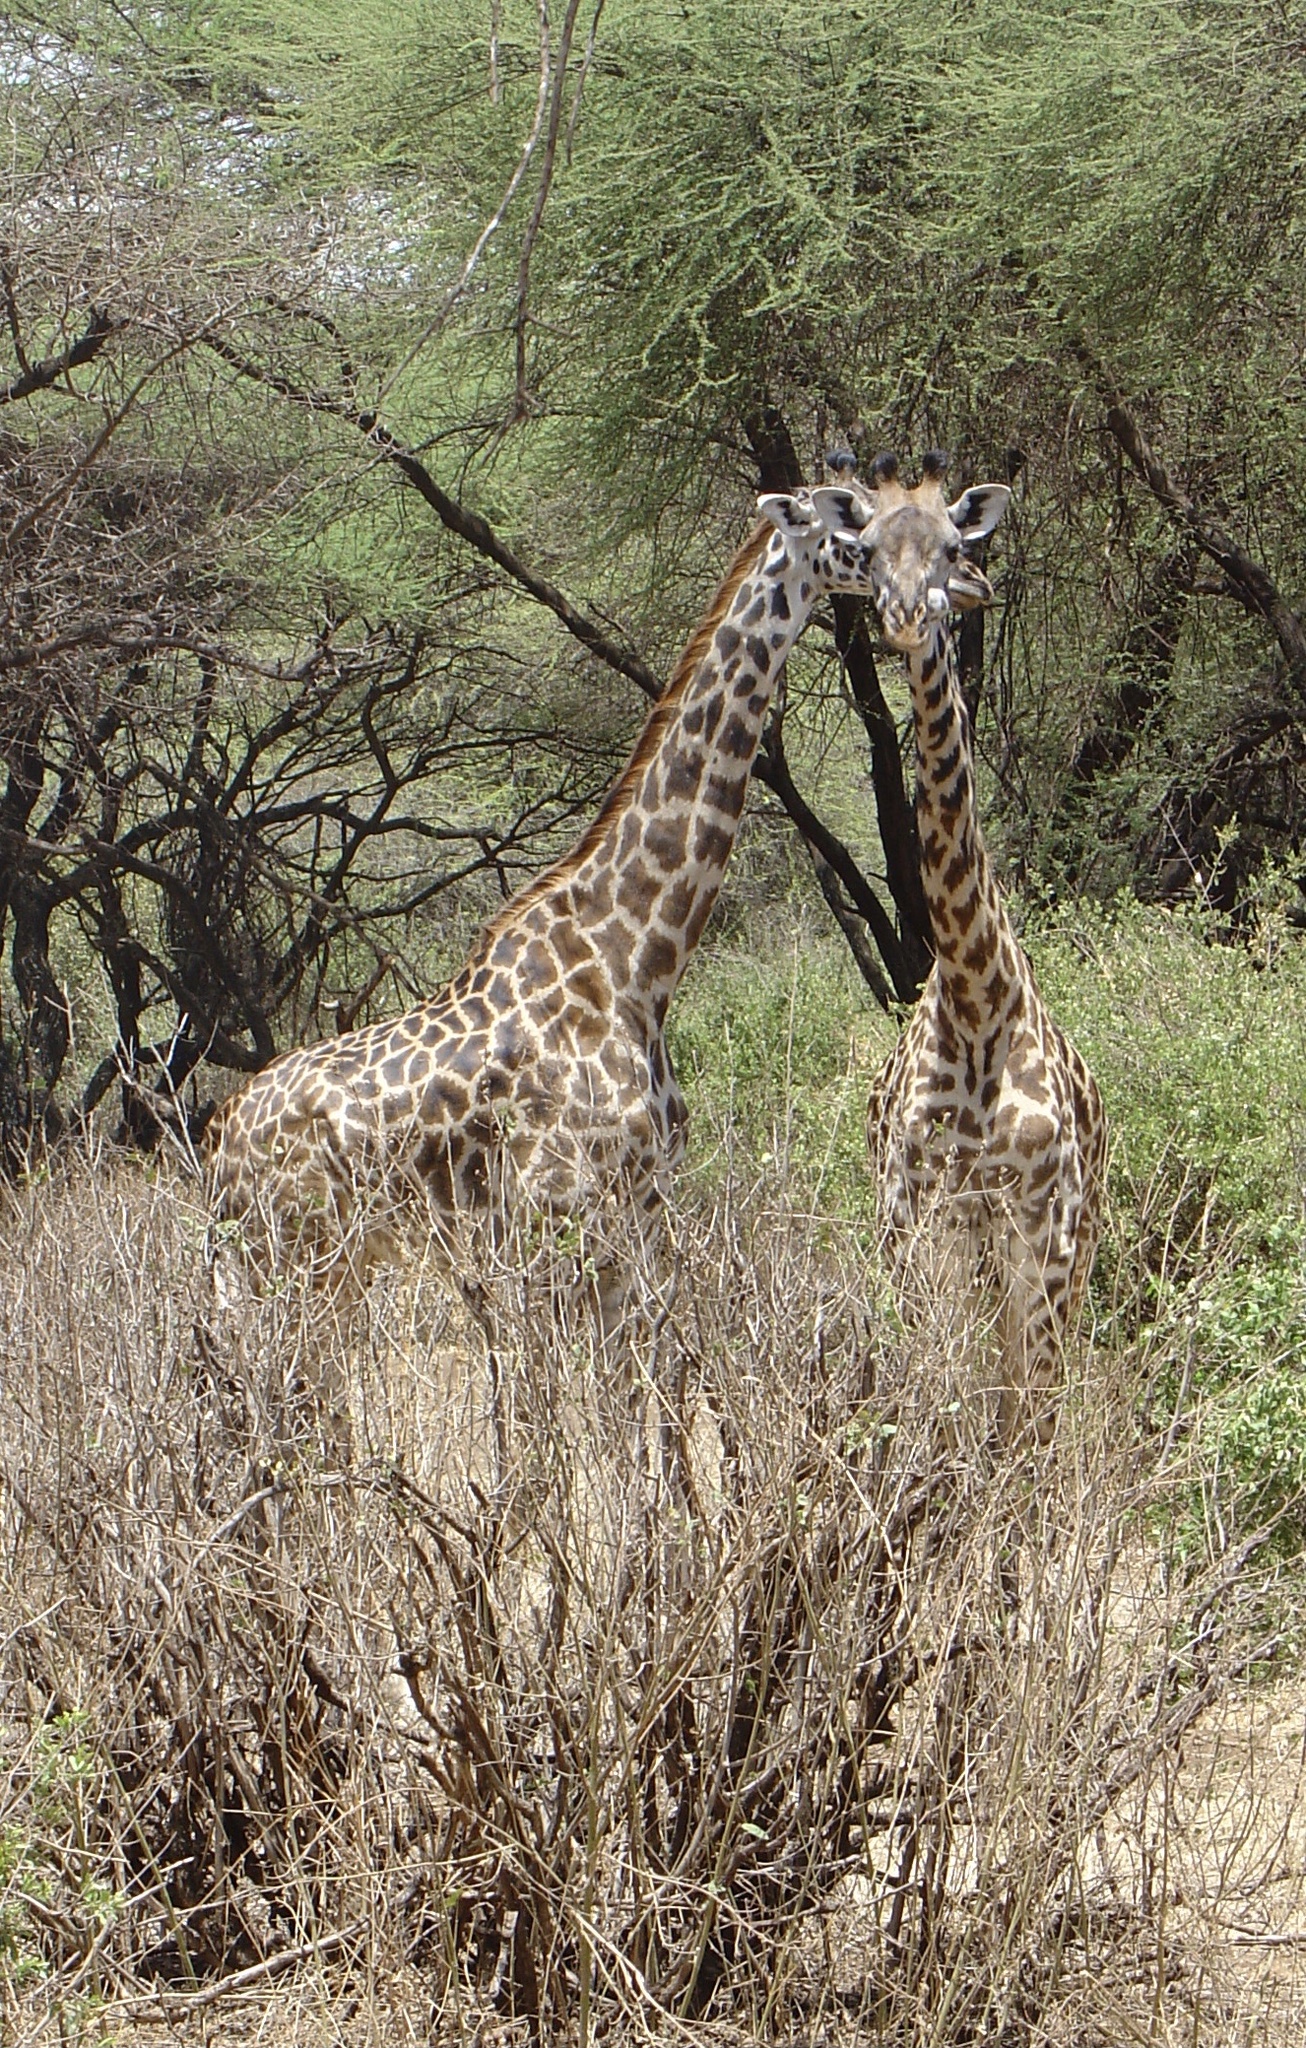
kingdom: Animalia
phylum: Chordata
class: Mammalia
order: Artiodactyla
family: Giraffidae
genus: Giraffa
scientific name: Giraffa tippelskirchi
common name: Masai giraffe
